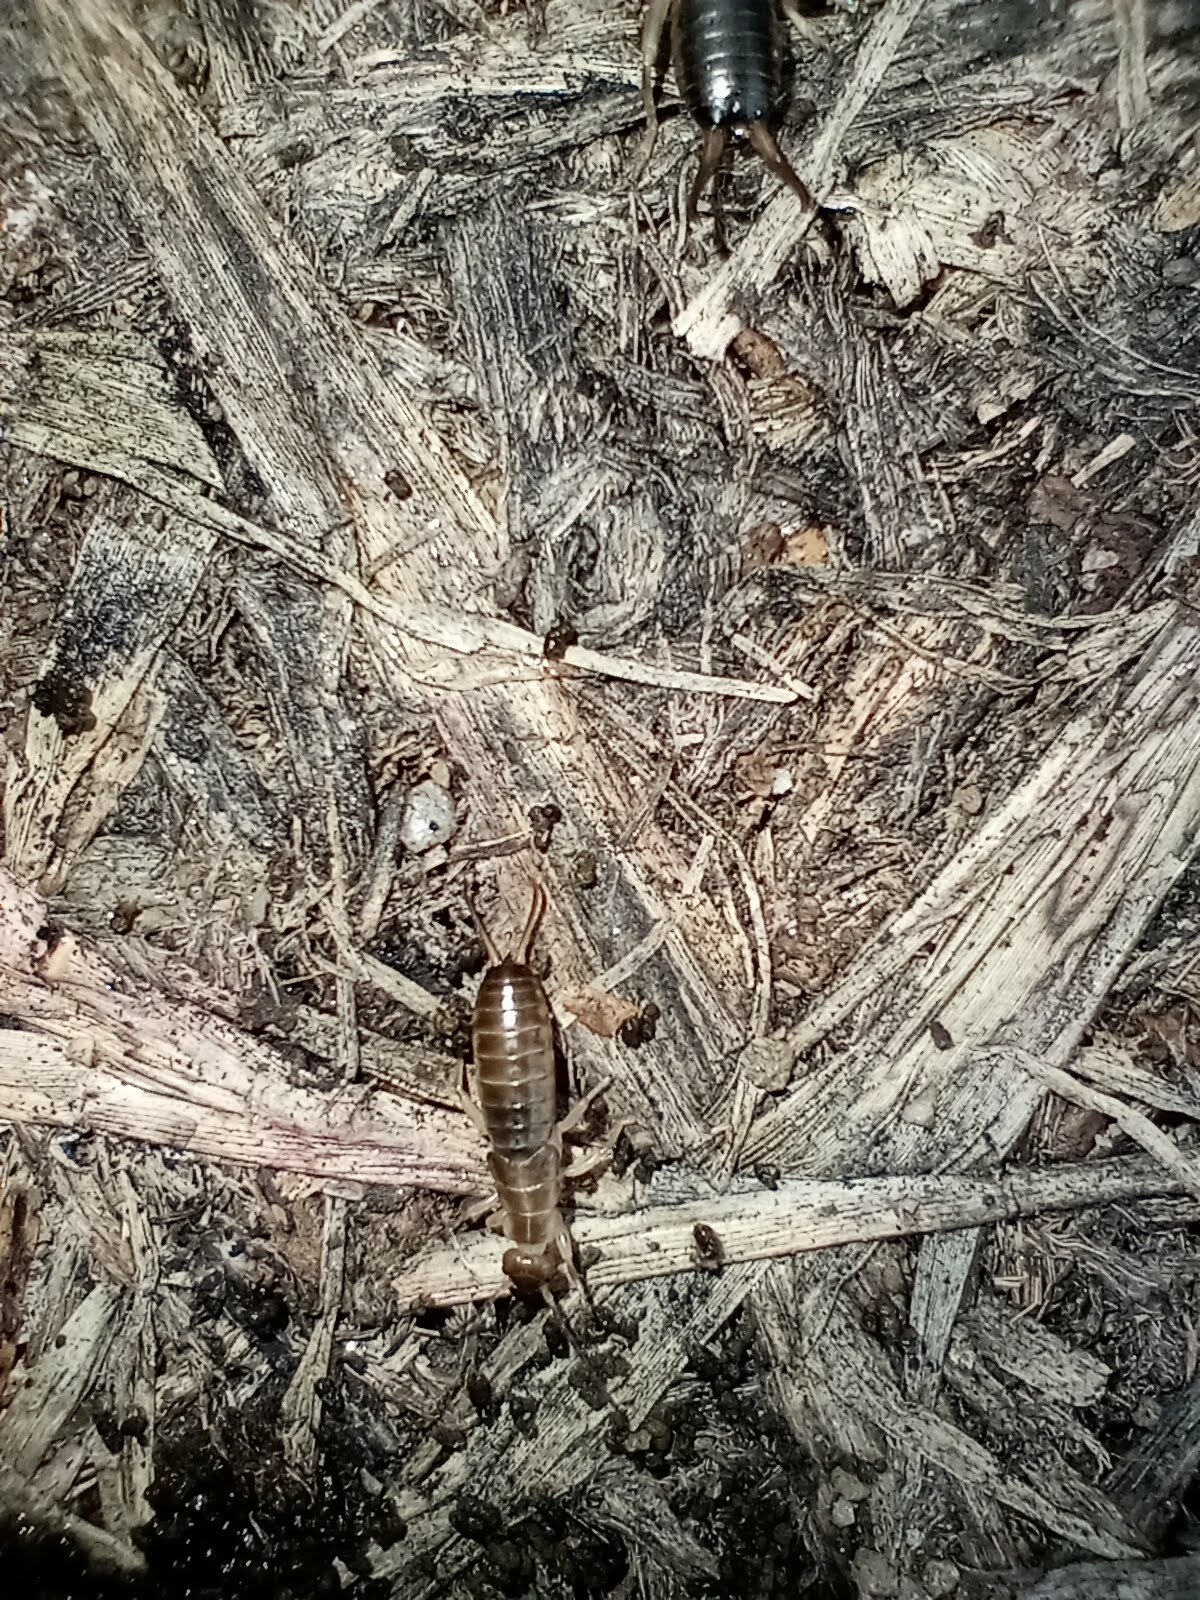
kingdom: Animalia
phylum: Arthropoda
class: Insecta
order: Dermaptera
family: Forficulidae
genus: Forficula
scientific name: Forficula
